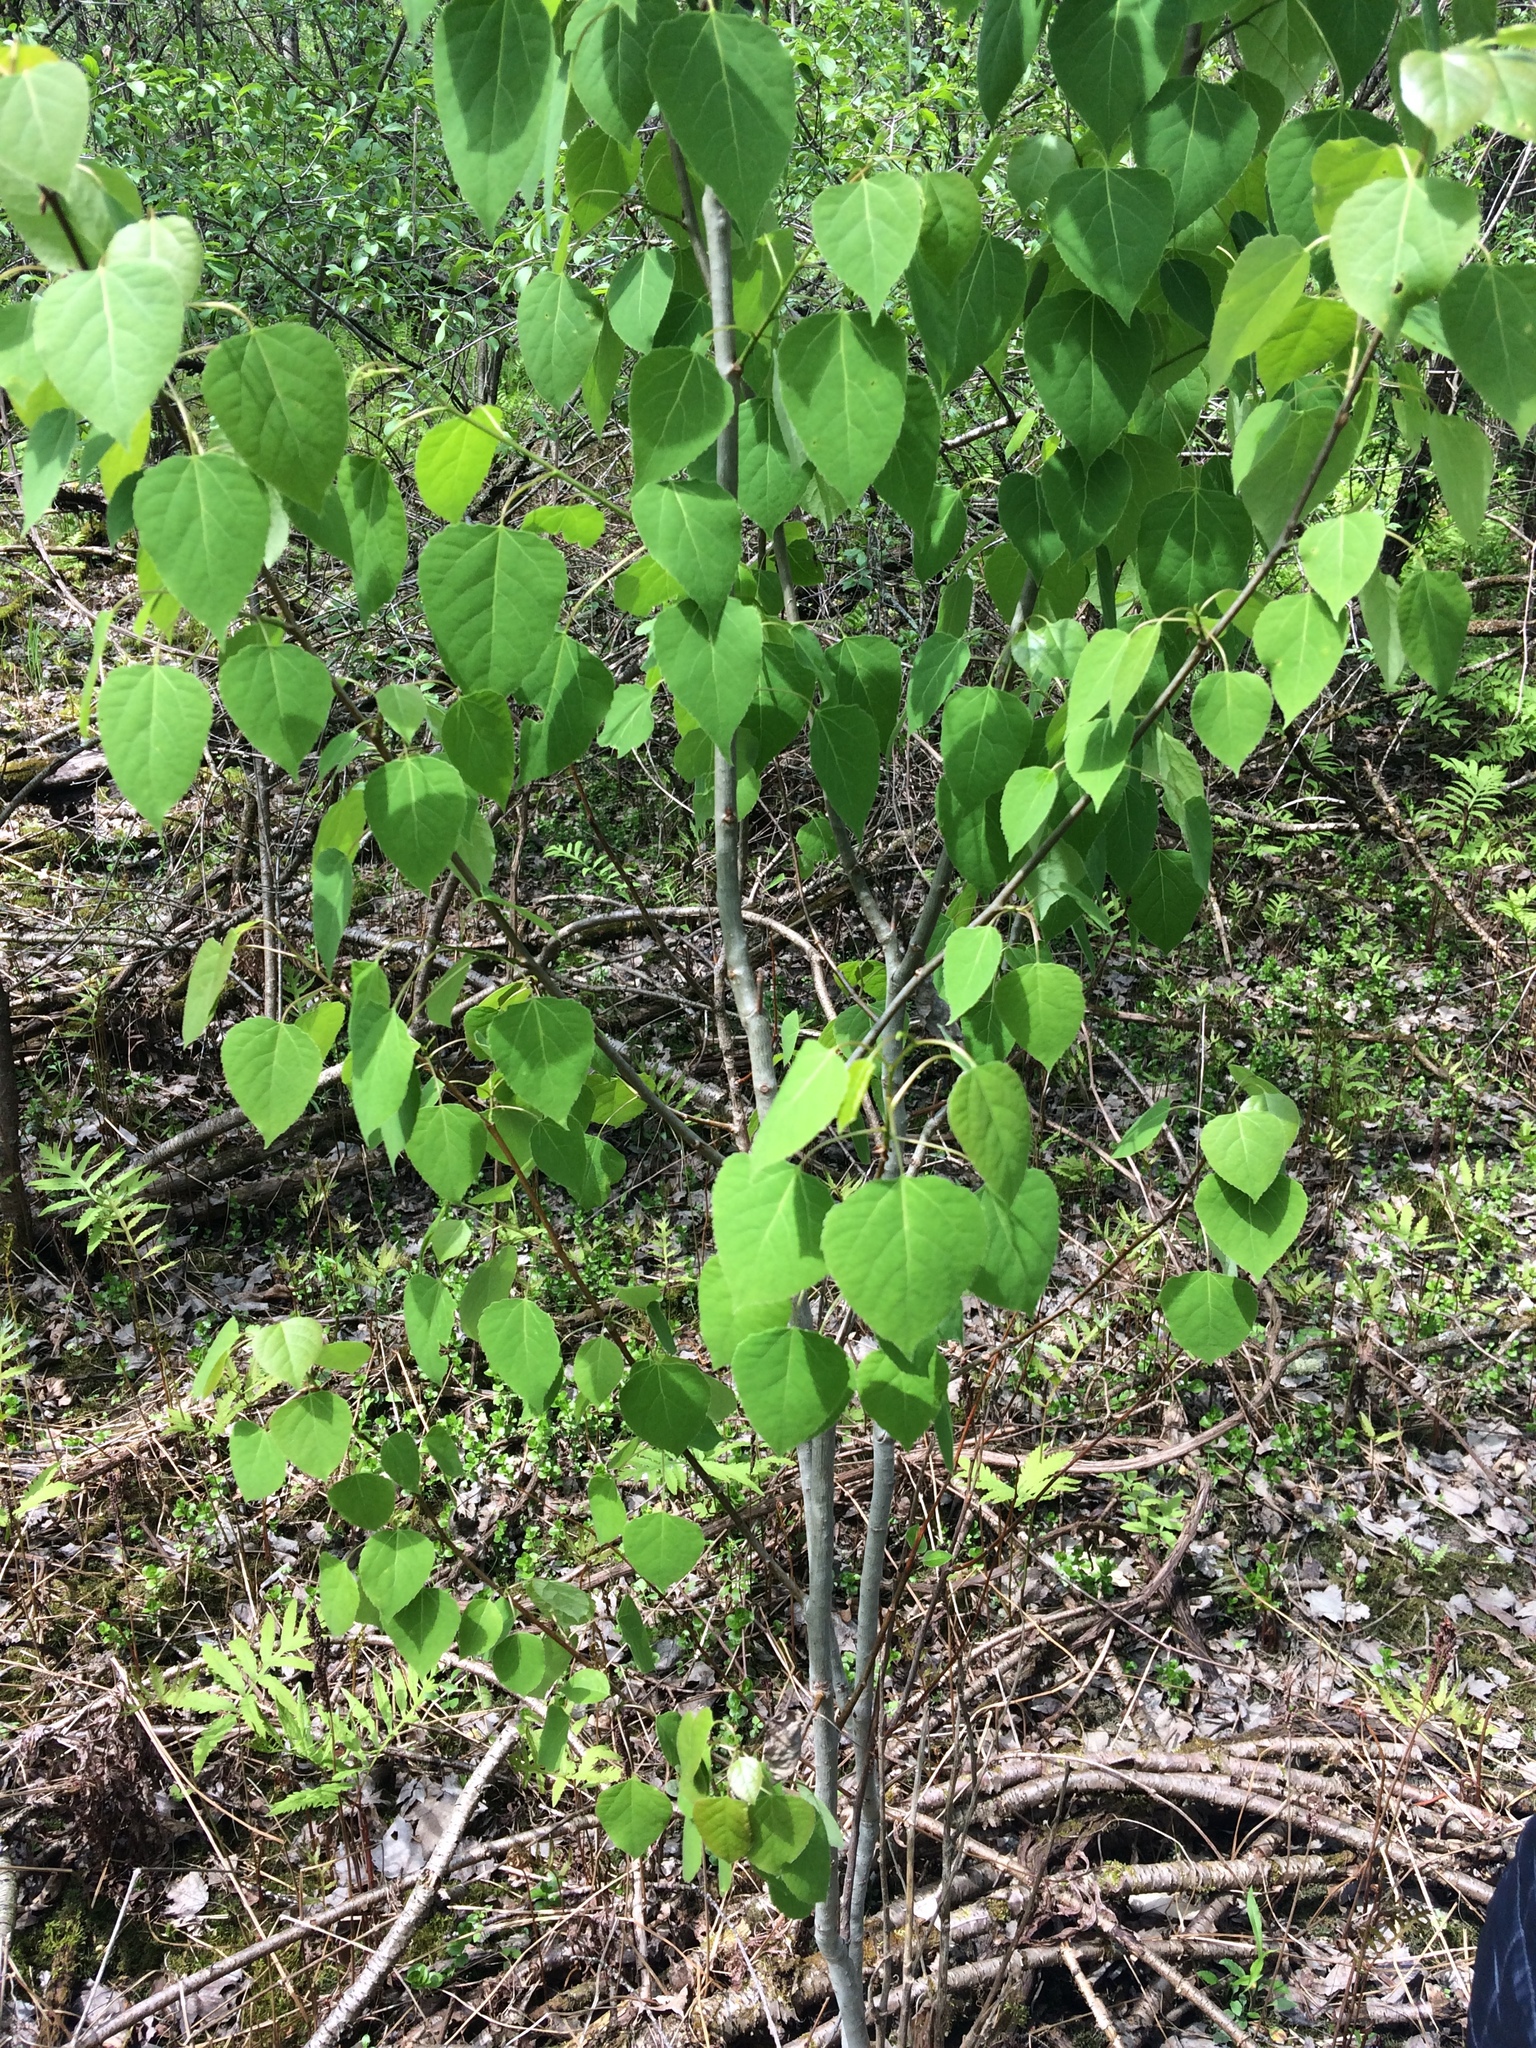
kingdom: Plantae
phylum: Tracheophyta
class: Magnoliopsida
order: Malpighiales
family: Salicaceae
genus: Populus
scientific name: Populus tremuloides
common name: Quaking aspen
